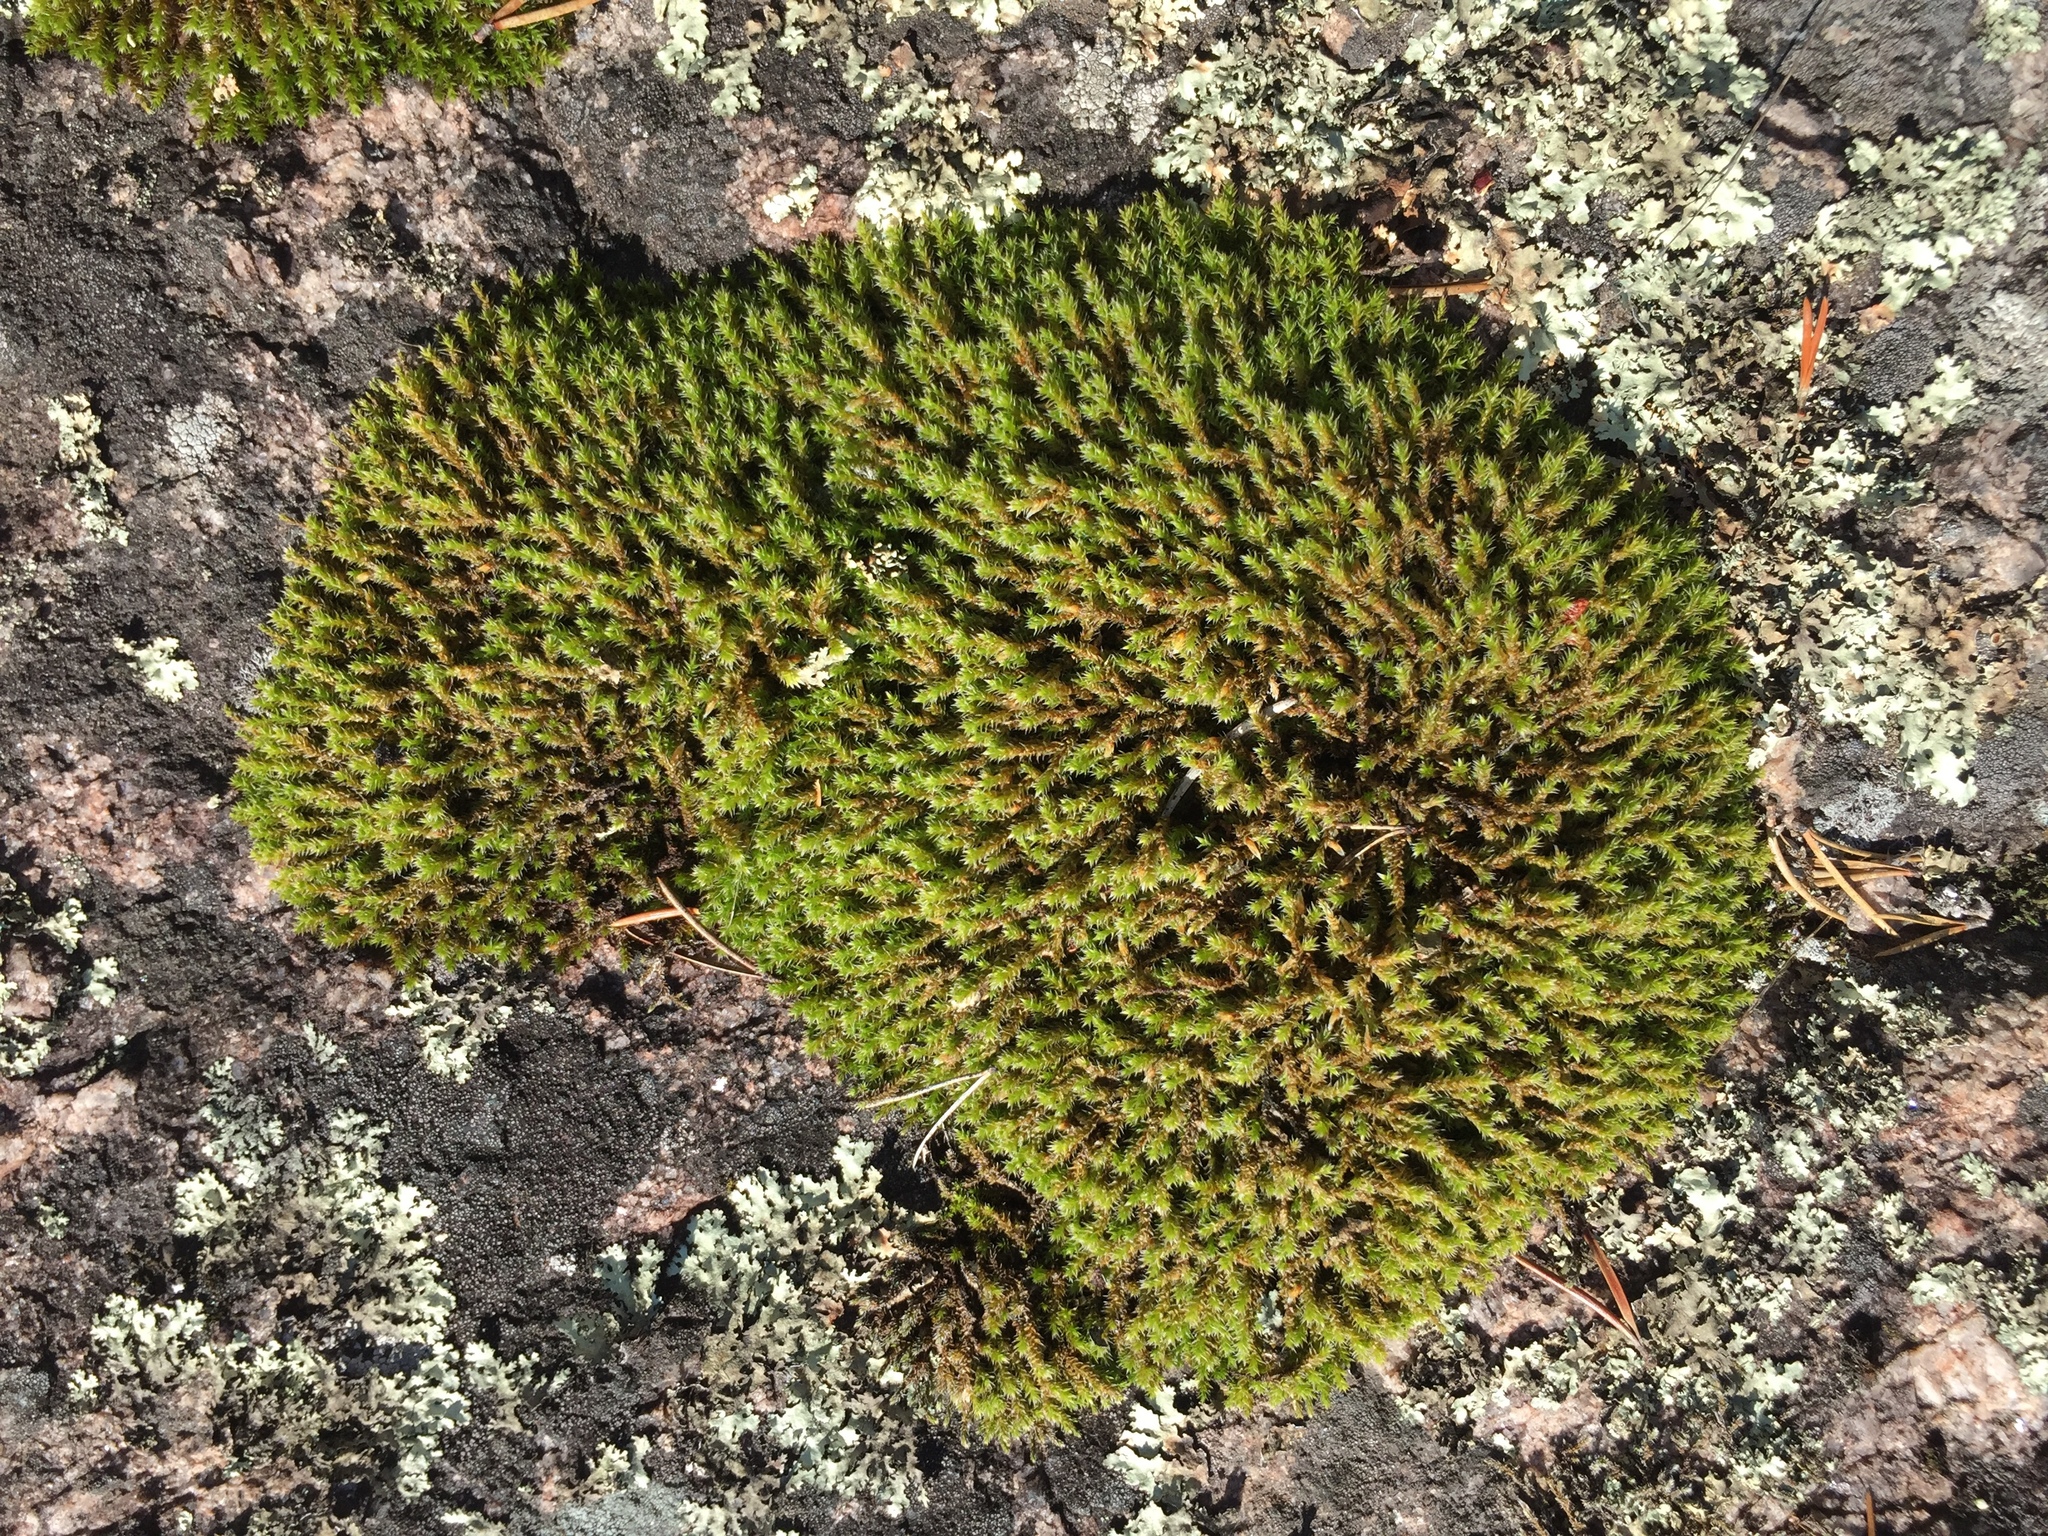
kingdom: Plantae
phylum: Bryophyta
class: Bryopsida
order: Hedwigiales
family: Hedwigiaceae
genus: Hedwigia
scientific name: Hedwigia ciliata
